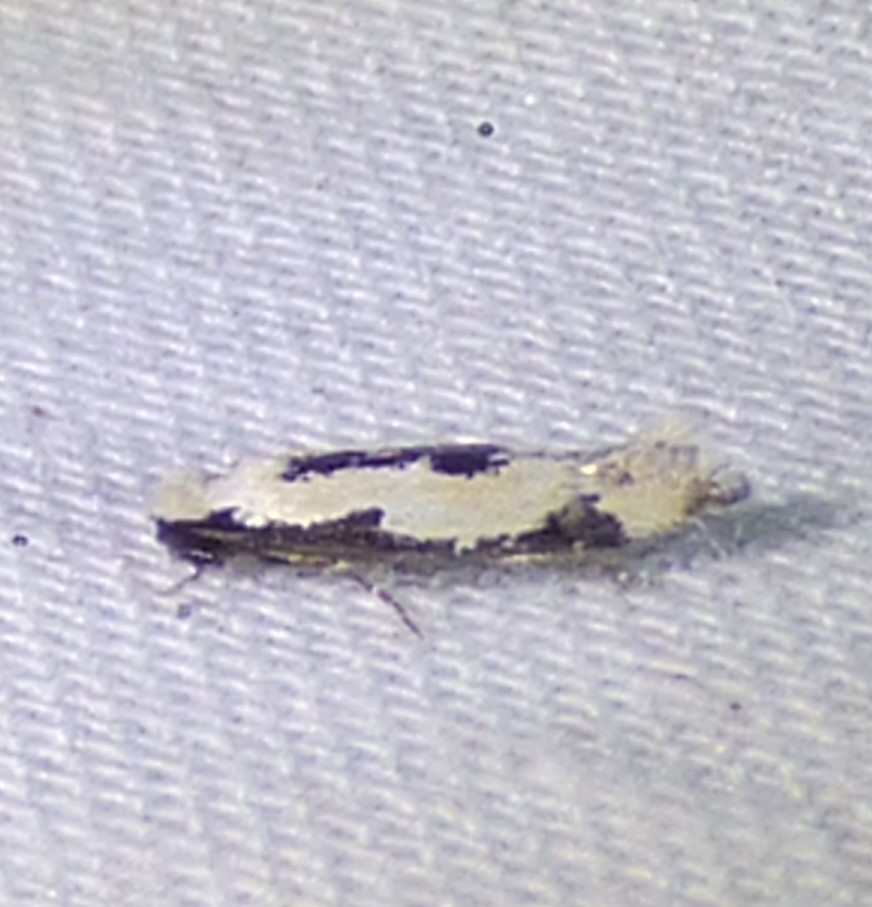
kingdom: Animalia
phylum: Arthropoda
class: Insecta
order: Lepidoptera
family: Meessiidae
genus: Mea
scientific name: Mea bipunctella
